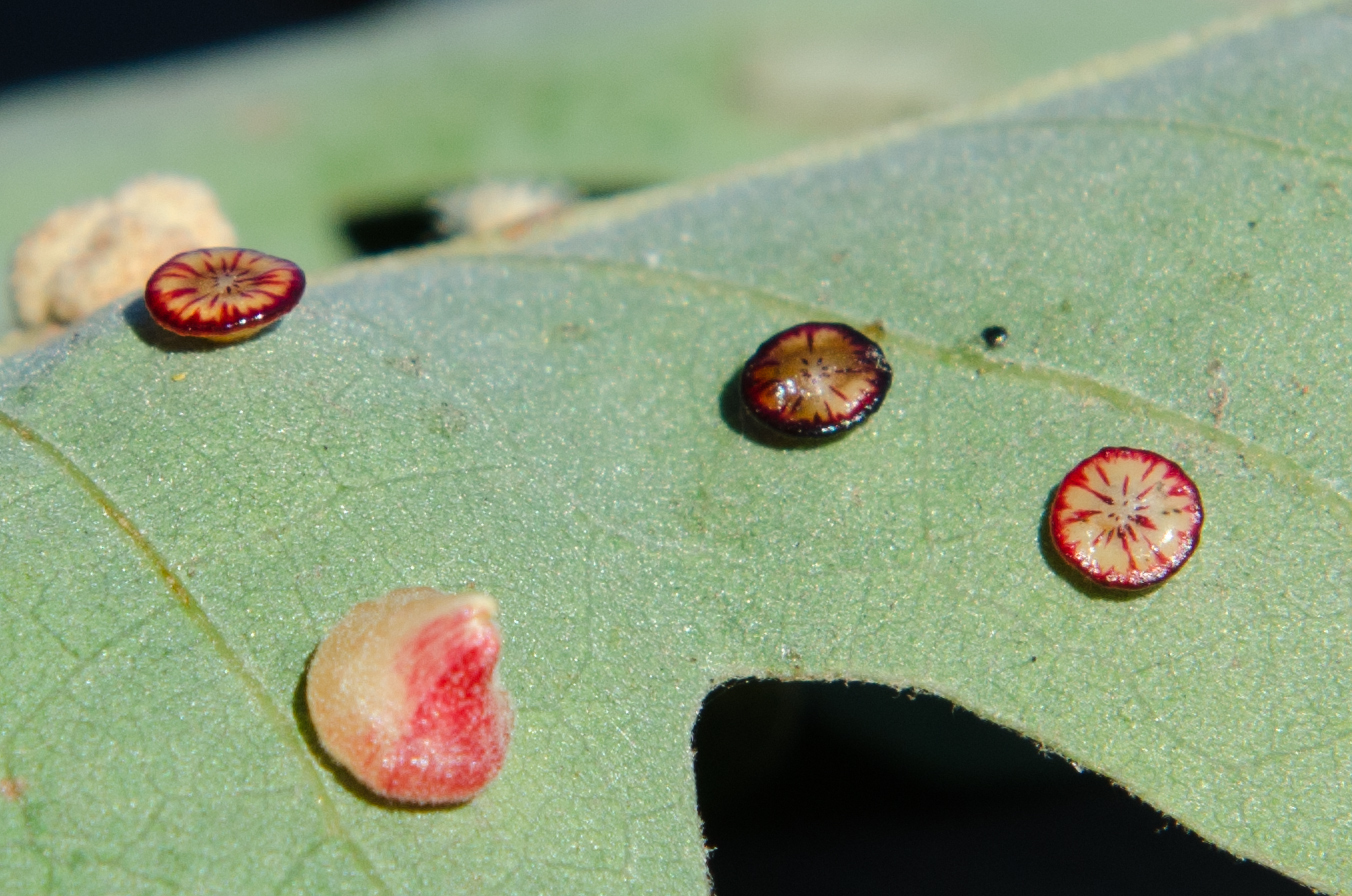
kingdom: Animalia
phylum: Arthropoda
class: Insecta
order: Hymenoptera
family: Cynipidae
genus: Andricus
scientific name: Andricus
